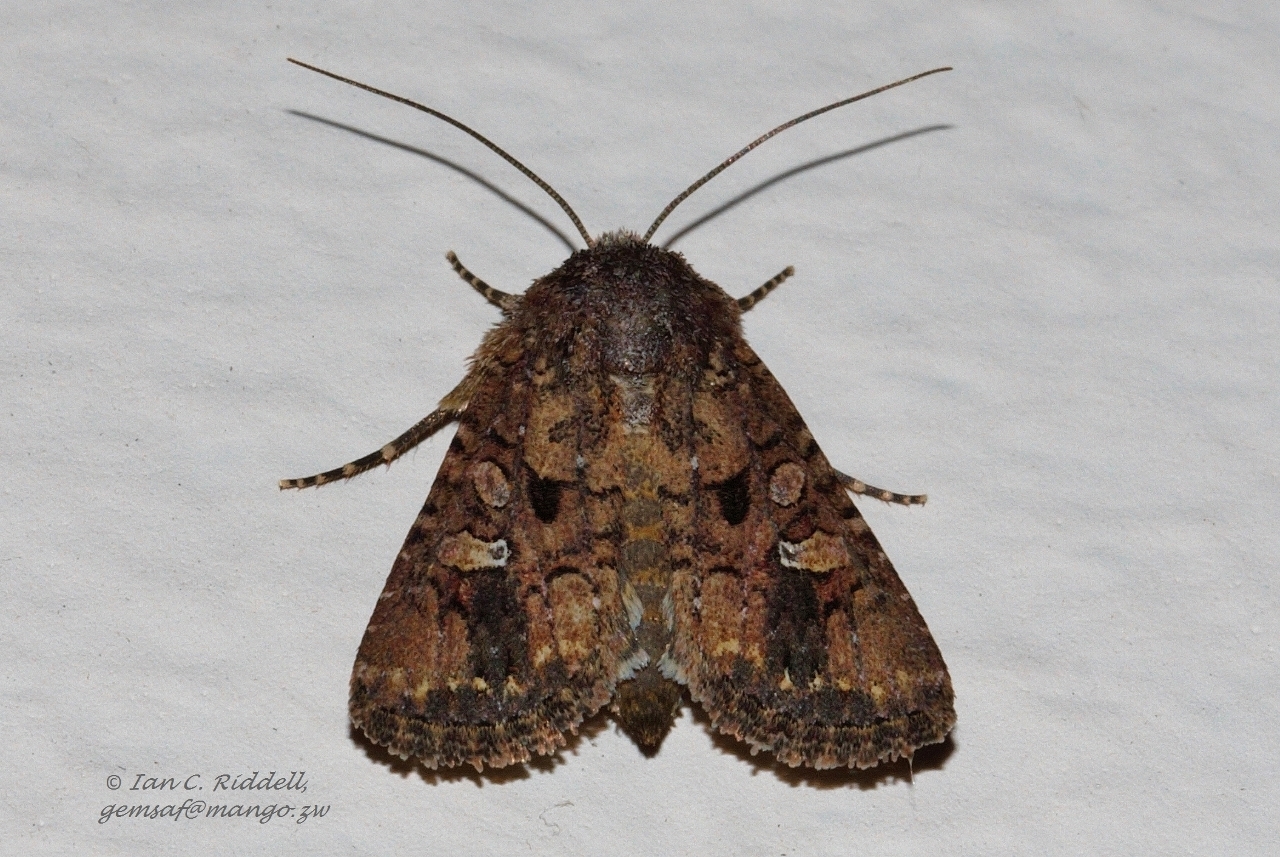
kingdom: Animalia
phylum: Arthropoda
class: Insecta
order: Lepidoptera
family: Noctuidae
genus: Tycomarptes
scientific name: Tycomarptes inferior
